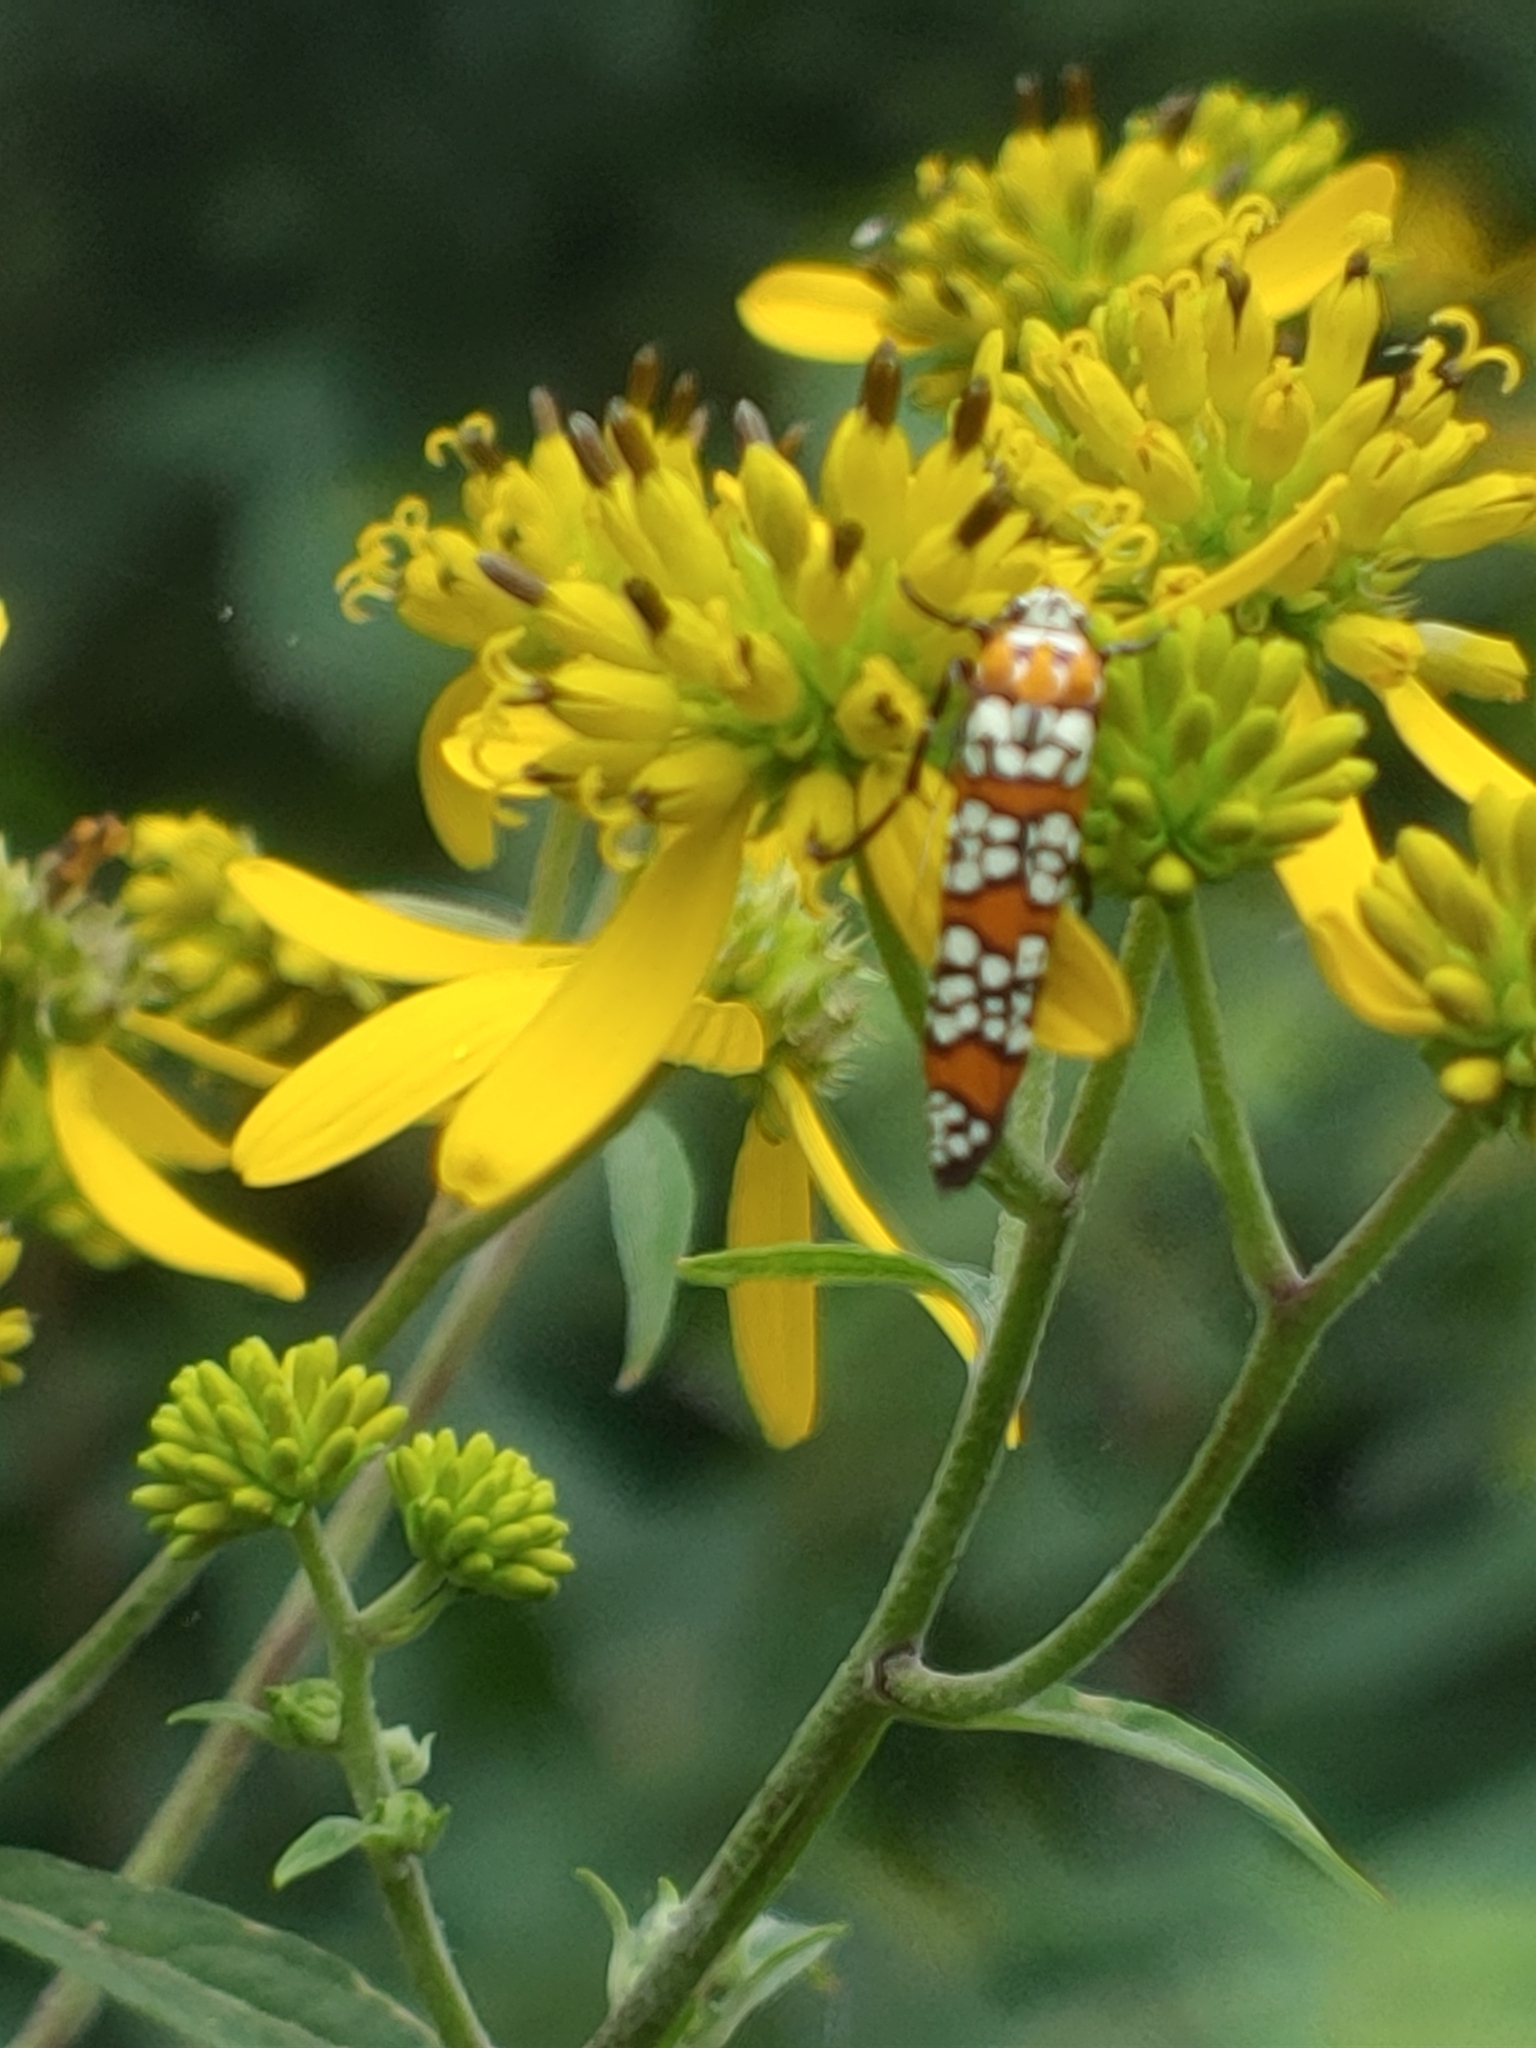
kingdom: Animalia
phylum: Arthropoda
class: Insecta
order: Lepidoptera
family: Attevidae
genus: Atteva
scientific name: Atteva punctella
